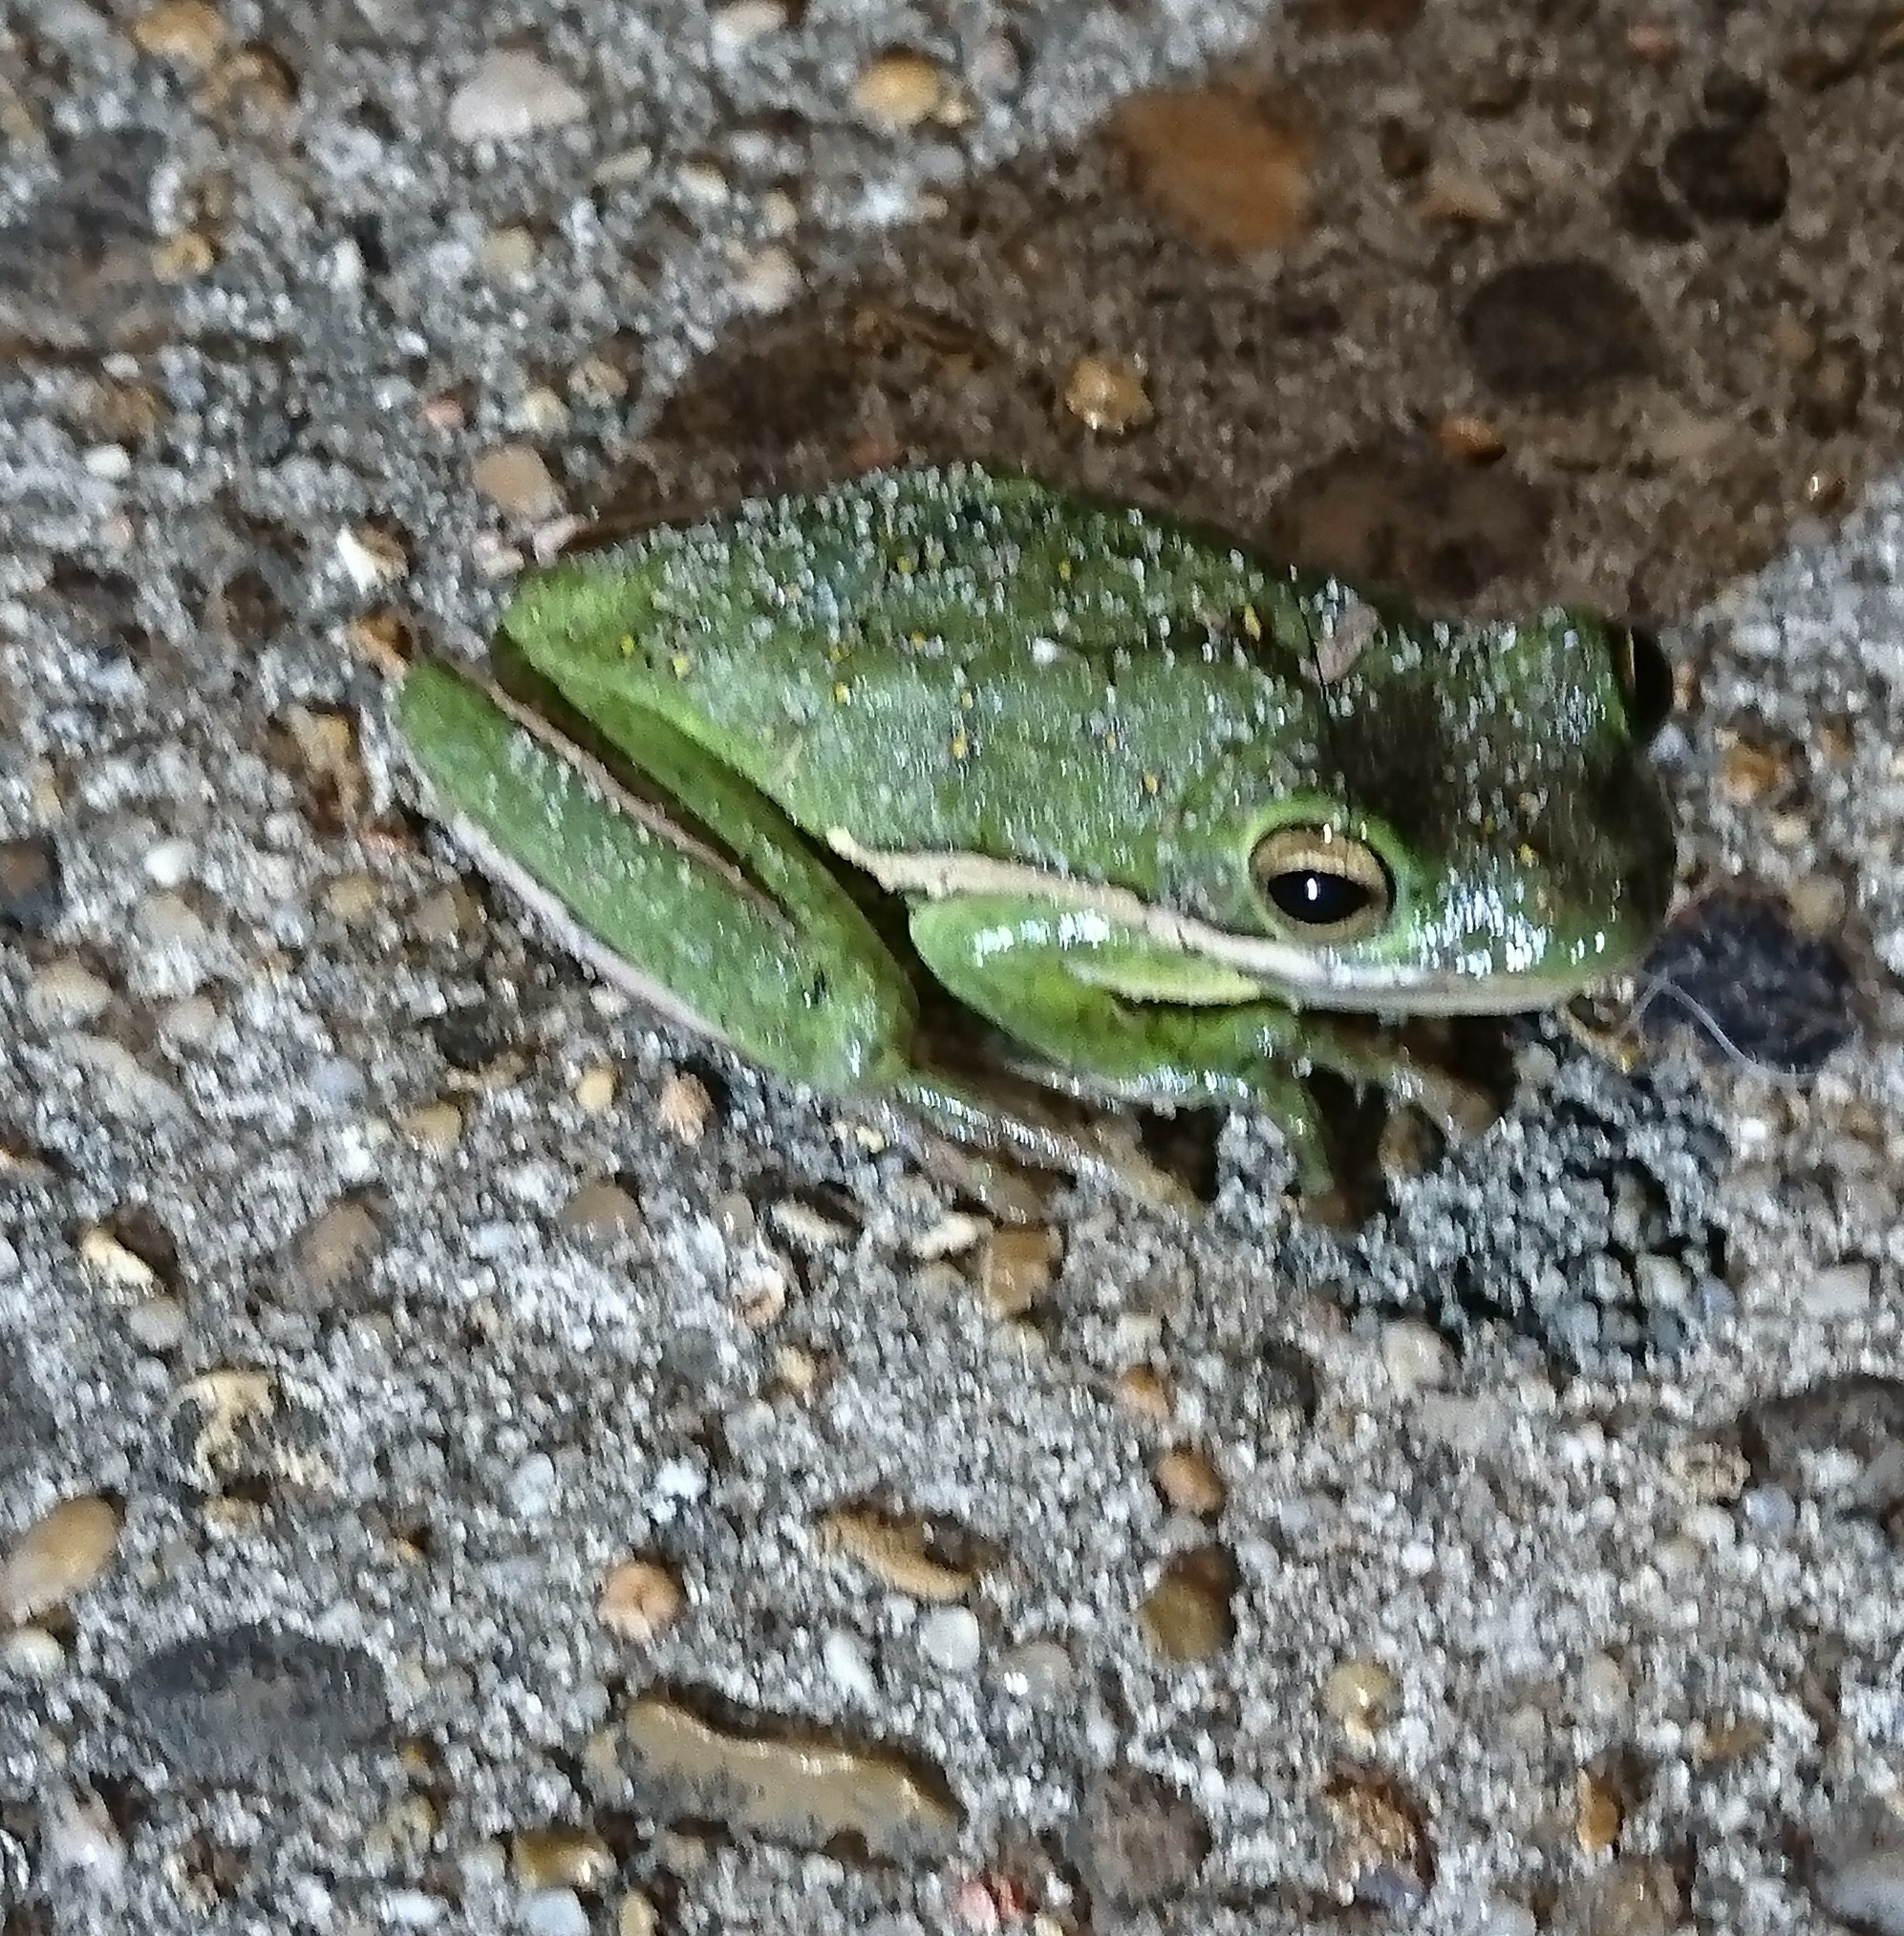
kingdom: Animalia
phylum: Chordata
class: Amphibia
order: Anura
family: Hylidae
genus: Dryophytes
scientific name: Dryophytes cinereus
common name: Green treefrog
